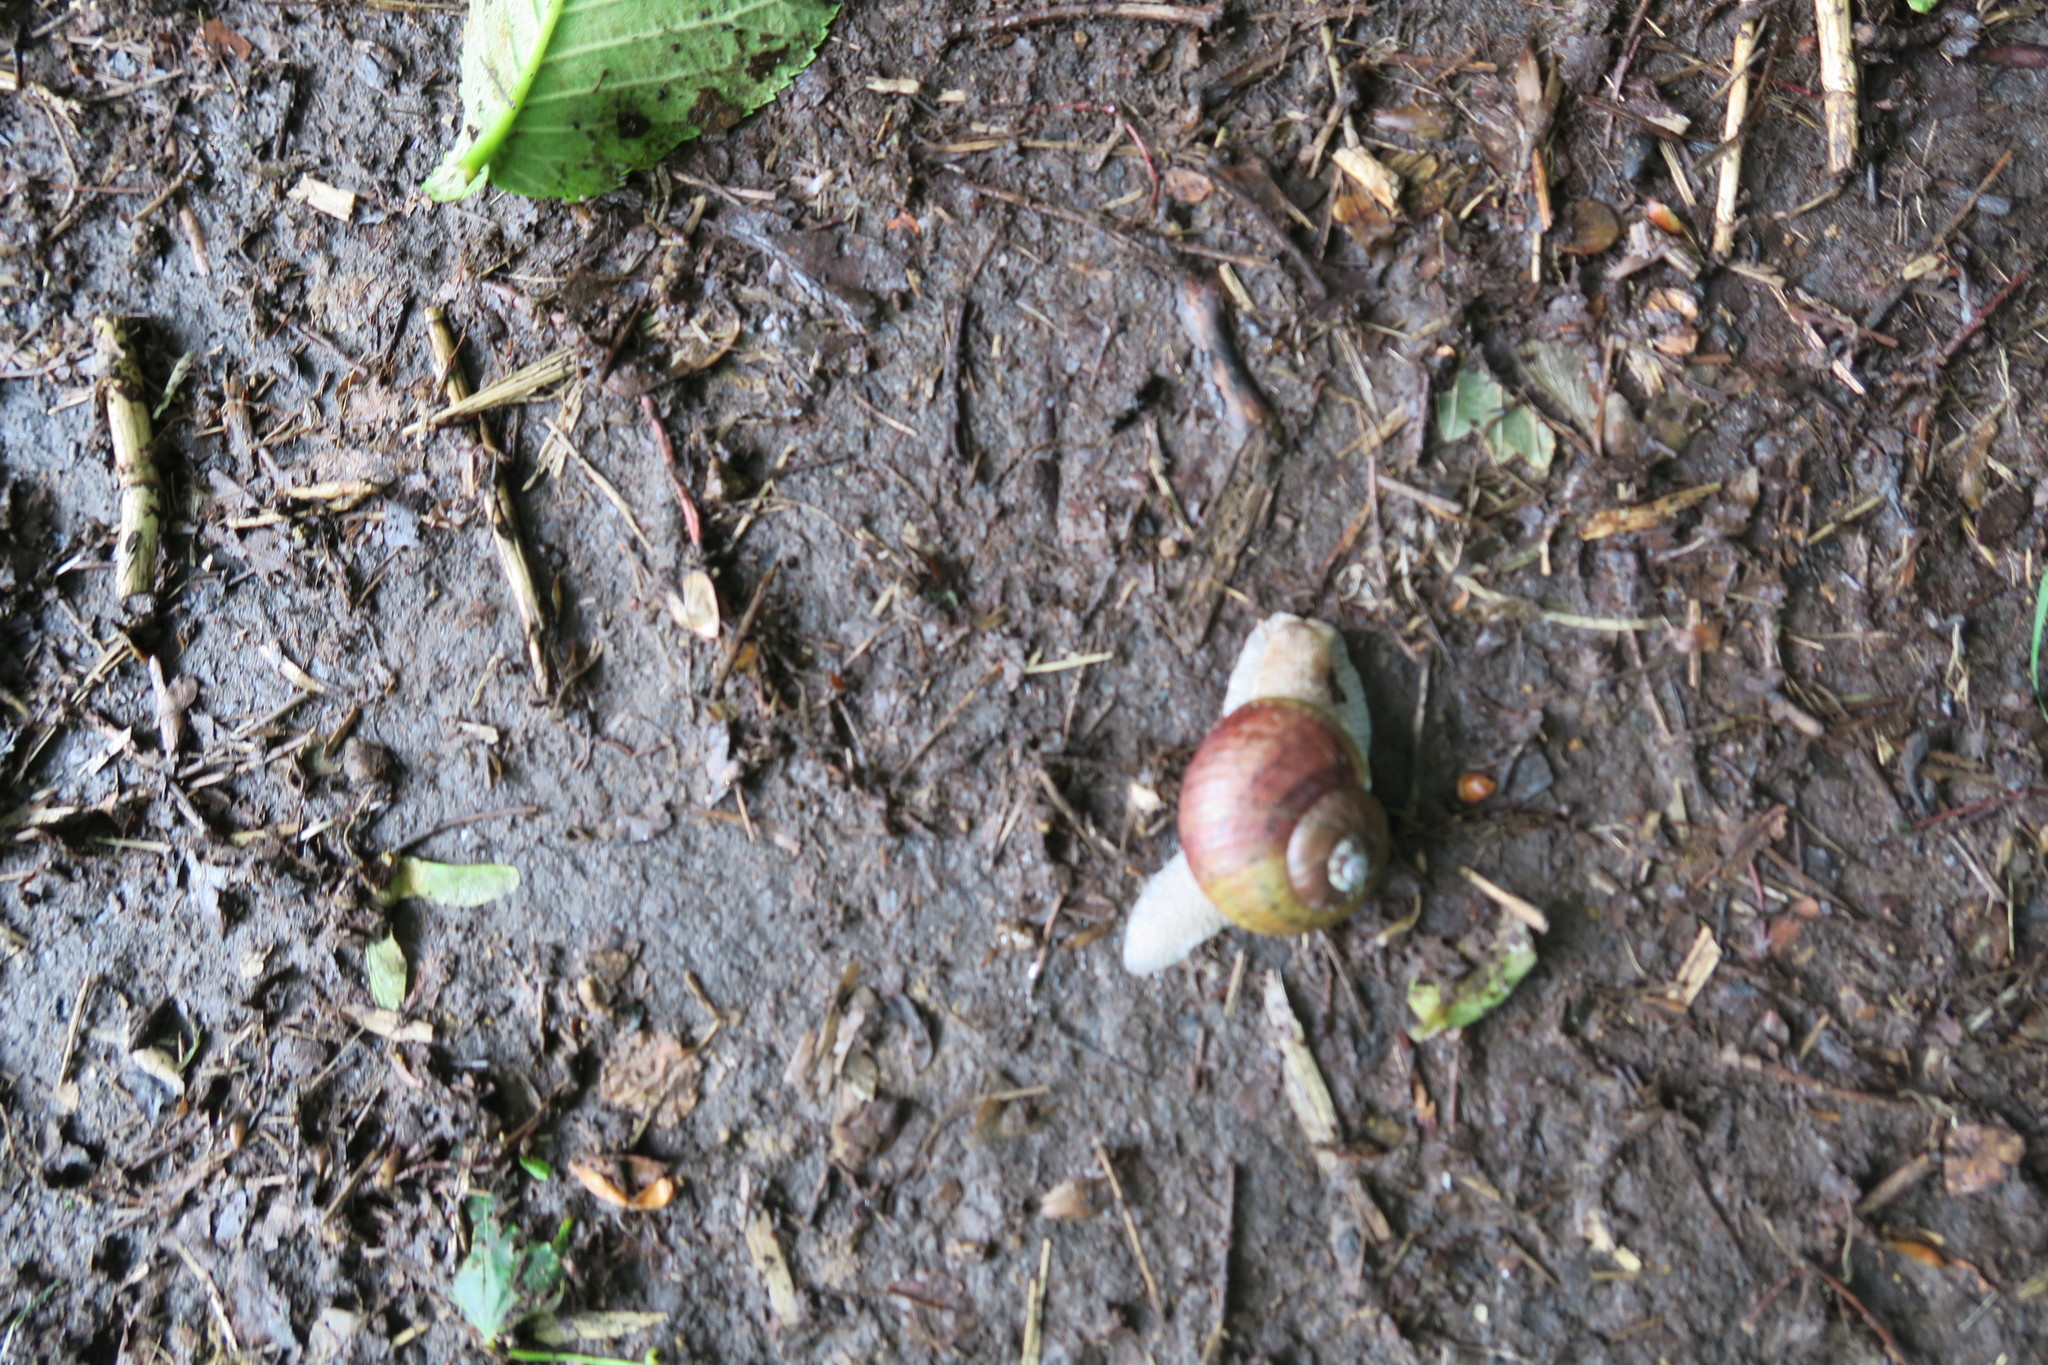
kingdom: Animalia
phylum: Mollusca
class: Gastropoda
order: Stylommatophora
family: Camaenidae
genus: Karaftohelix
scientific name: Karaftohelix gainesi
